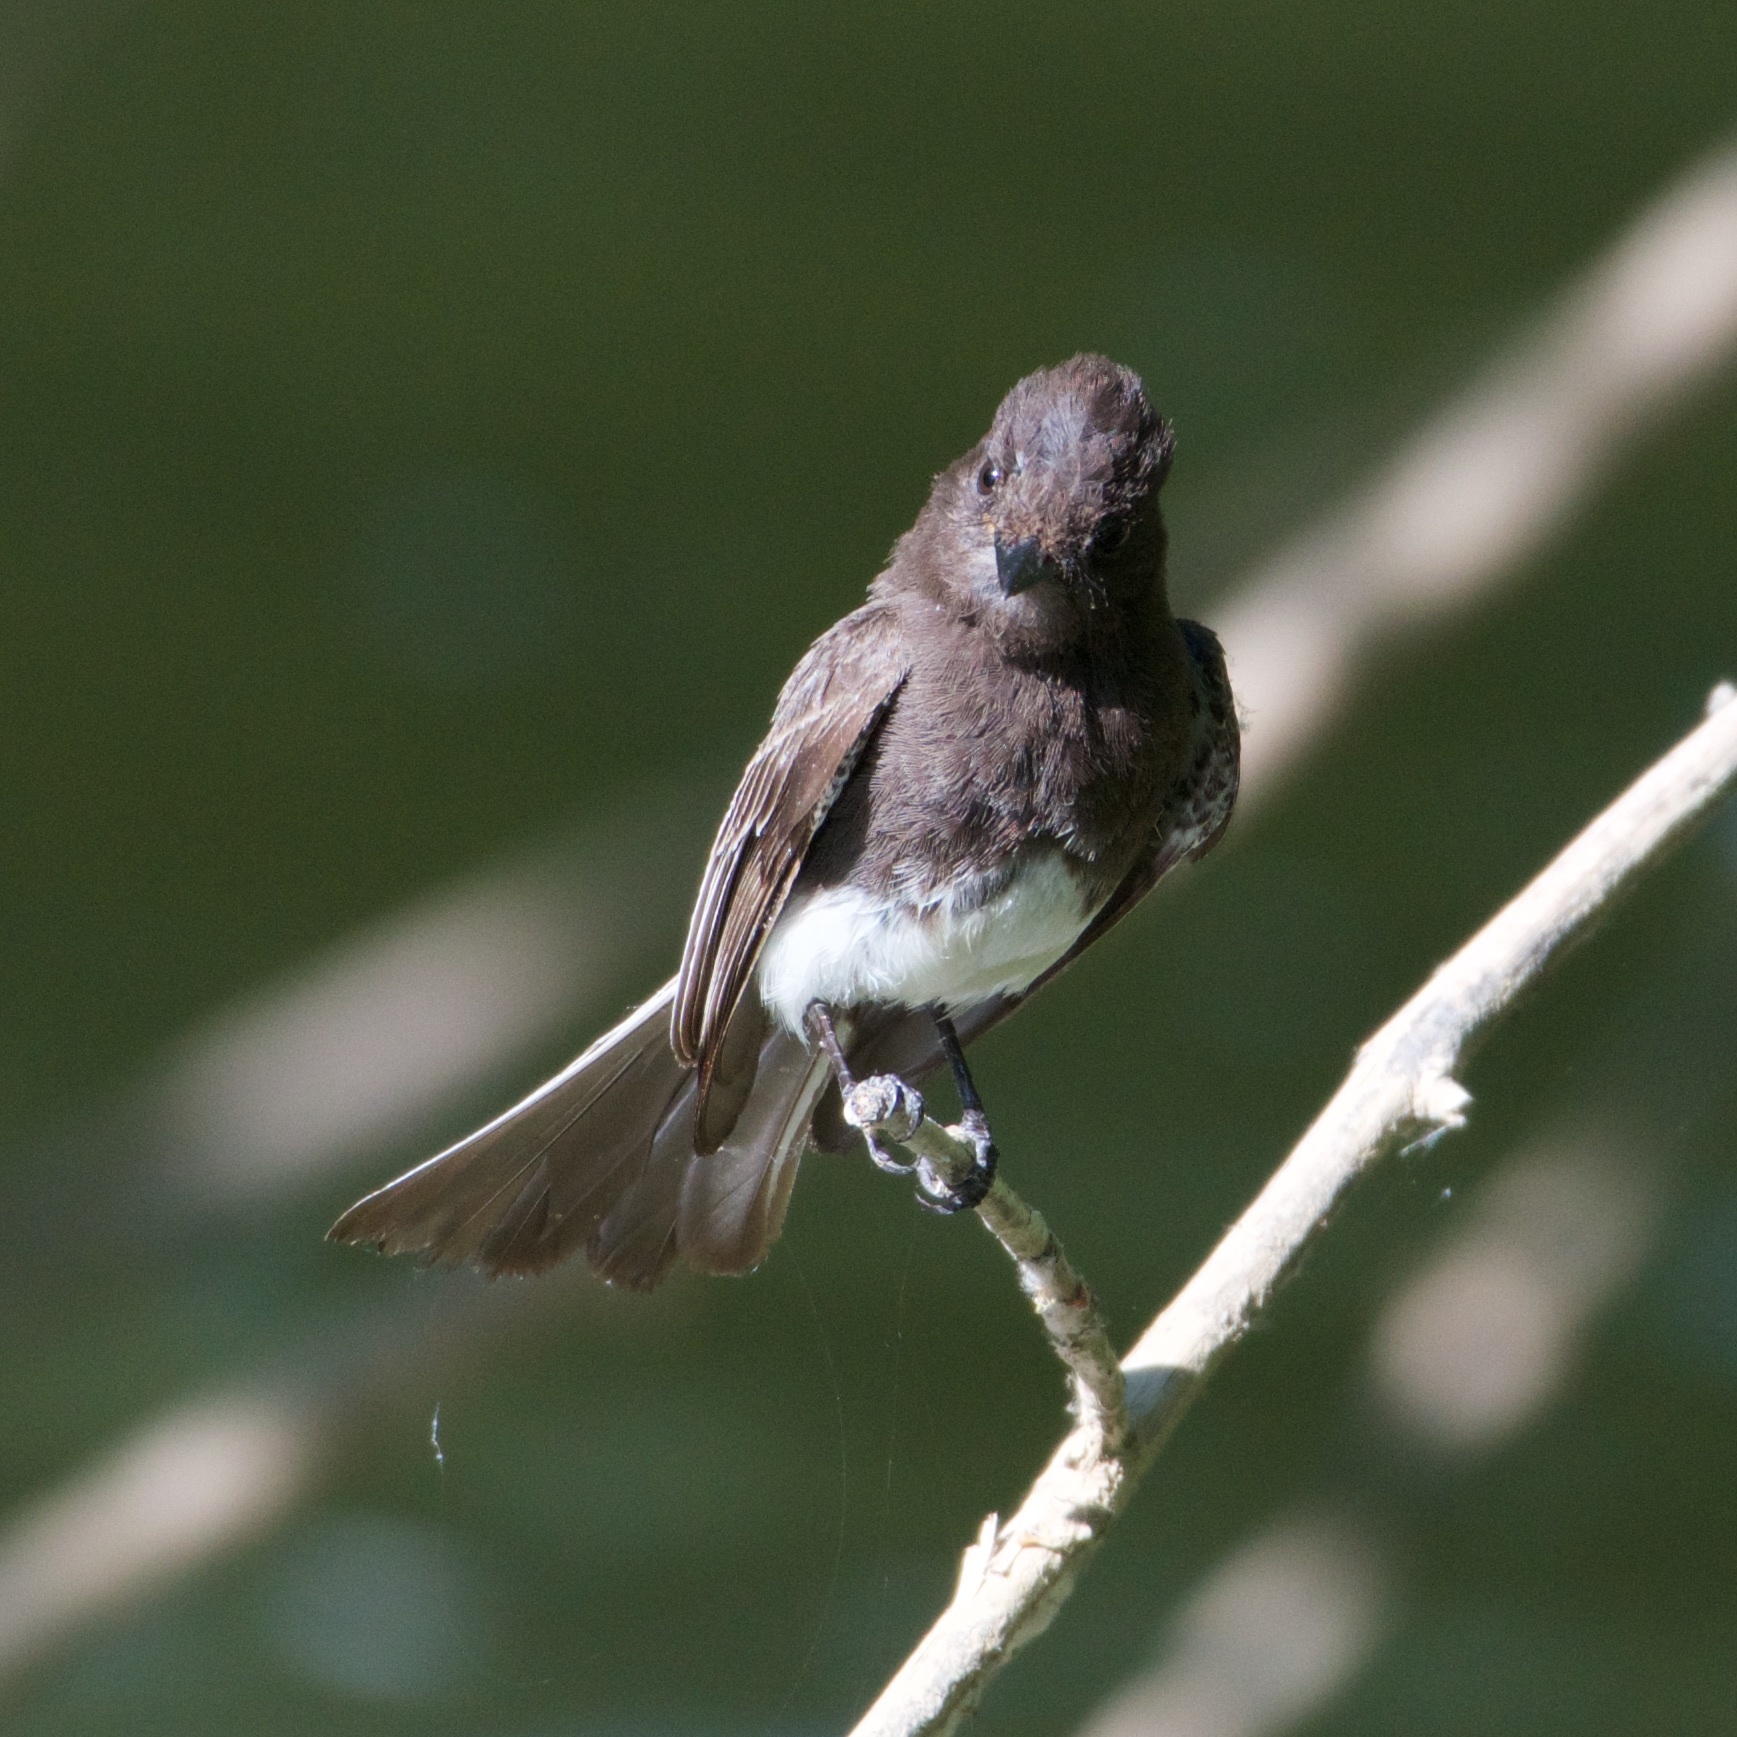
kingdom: Animalia
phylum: Chordata
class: Aves
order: Passeriformes
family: Tyrannidae
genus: Sayornis
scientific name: Sayornis nigricans
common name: Black phoebe
